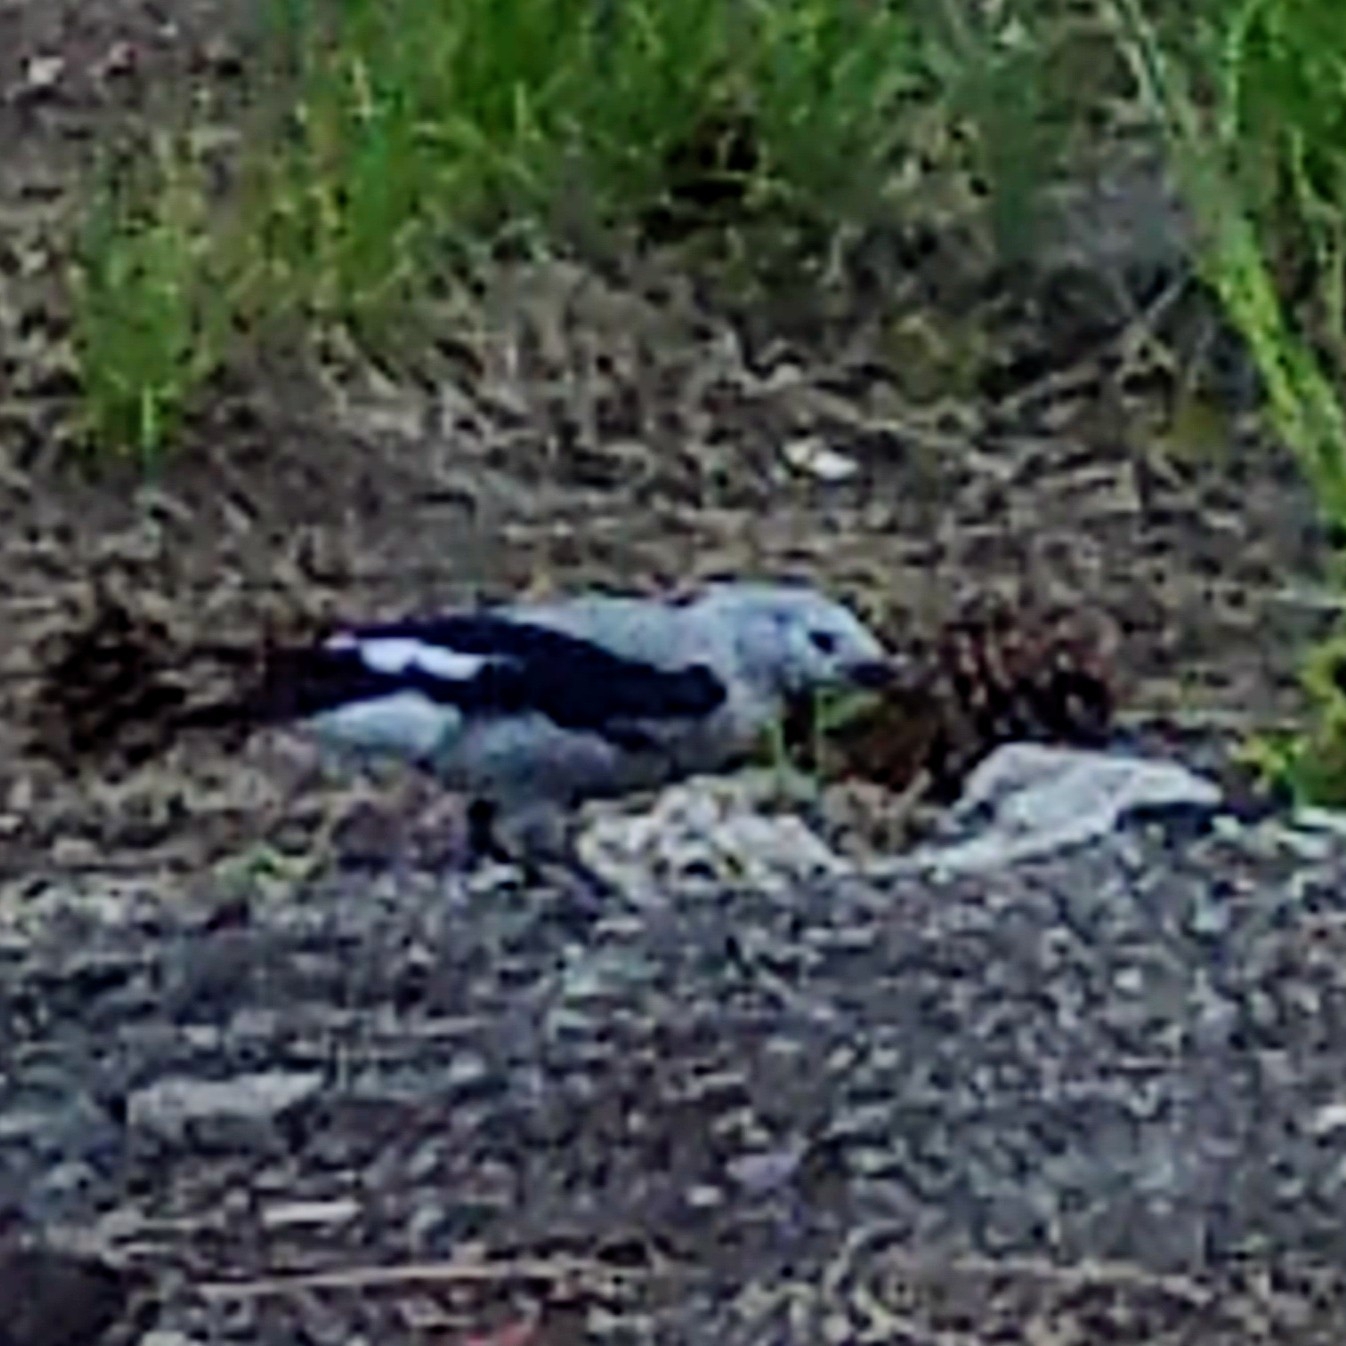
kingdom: Animalia
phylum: Chordata
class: Aves
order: Passeriformes
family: Corvidae
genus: Nucifraga
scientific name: Nucifraga columbiana
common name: Clark's nutcracker
